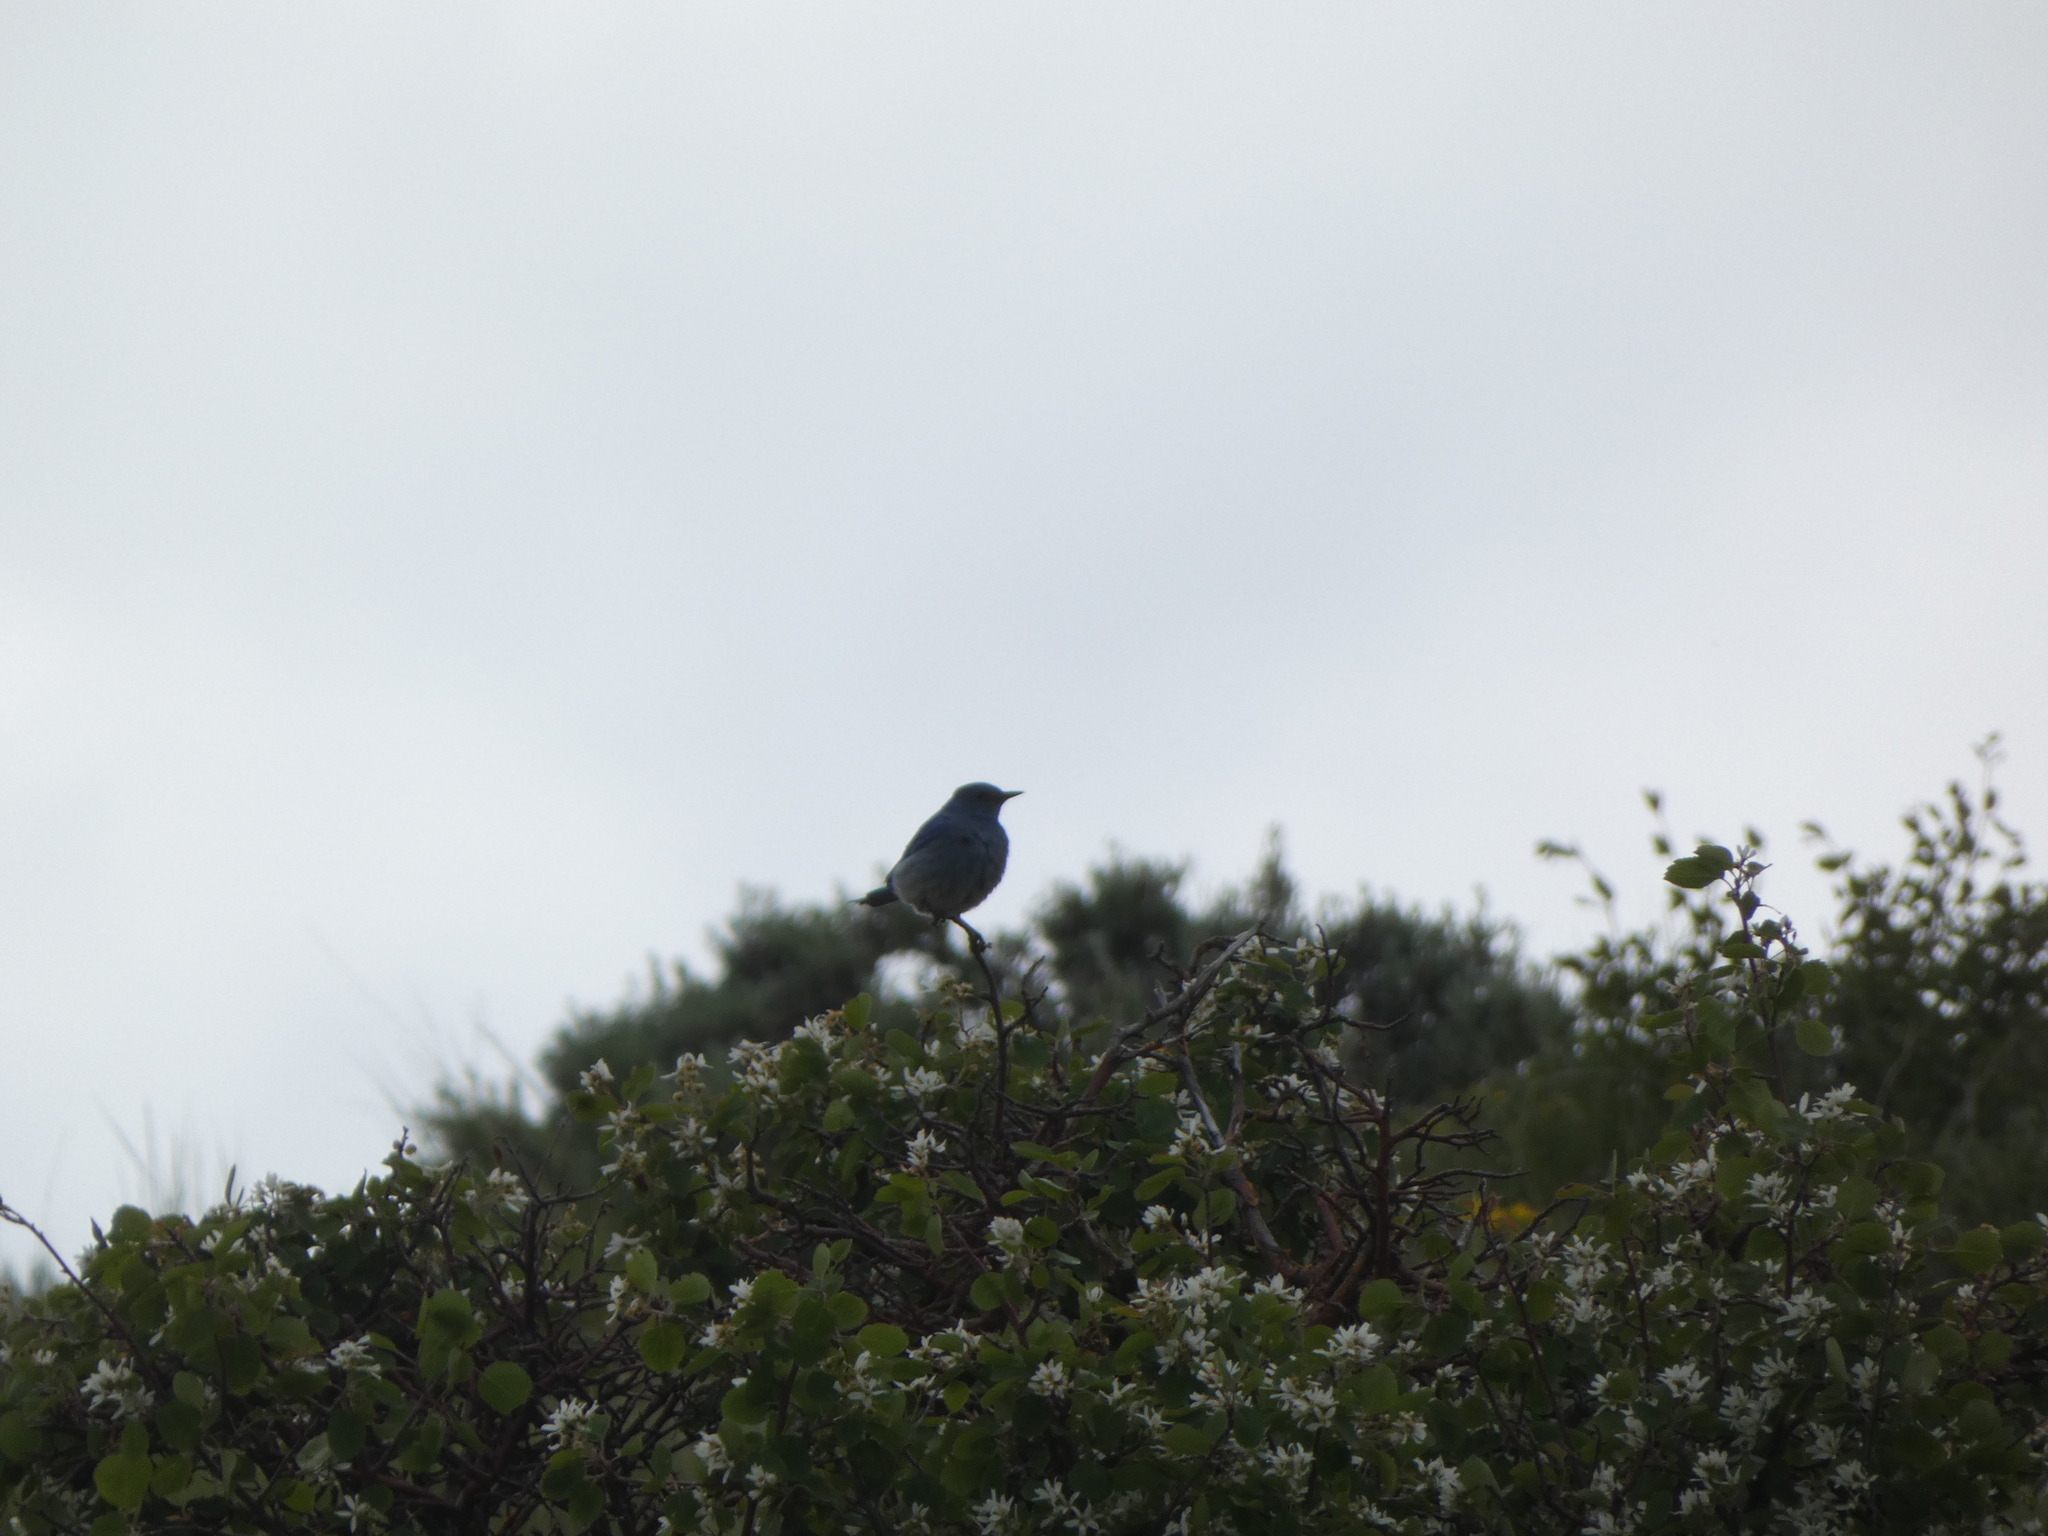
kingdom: Animalia
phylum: Chordata
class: Aves
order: Passeriformes
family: Turdidae
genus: Sialia
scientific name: Sialia currucoides
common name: Mountain bluebird
